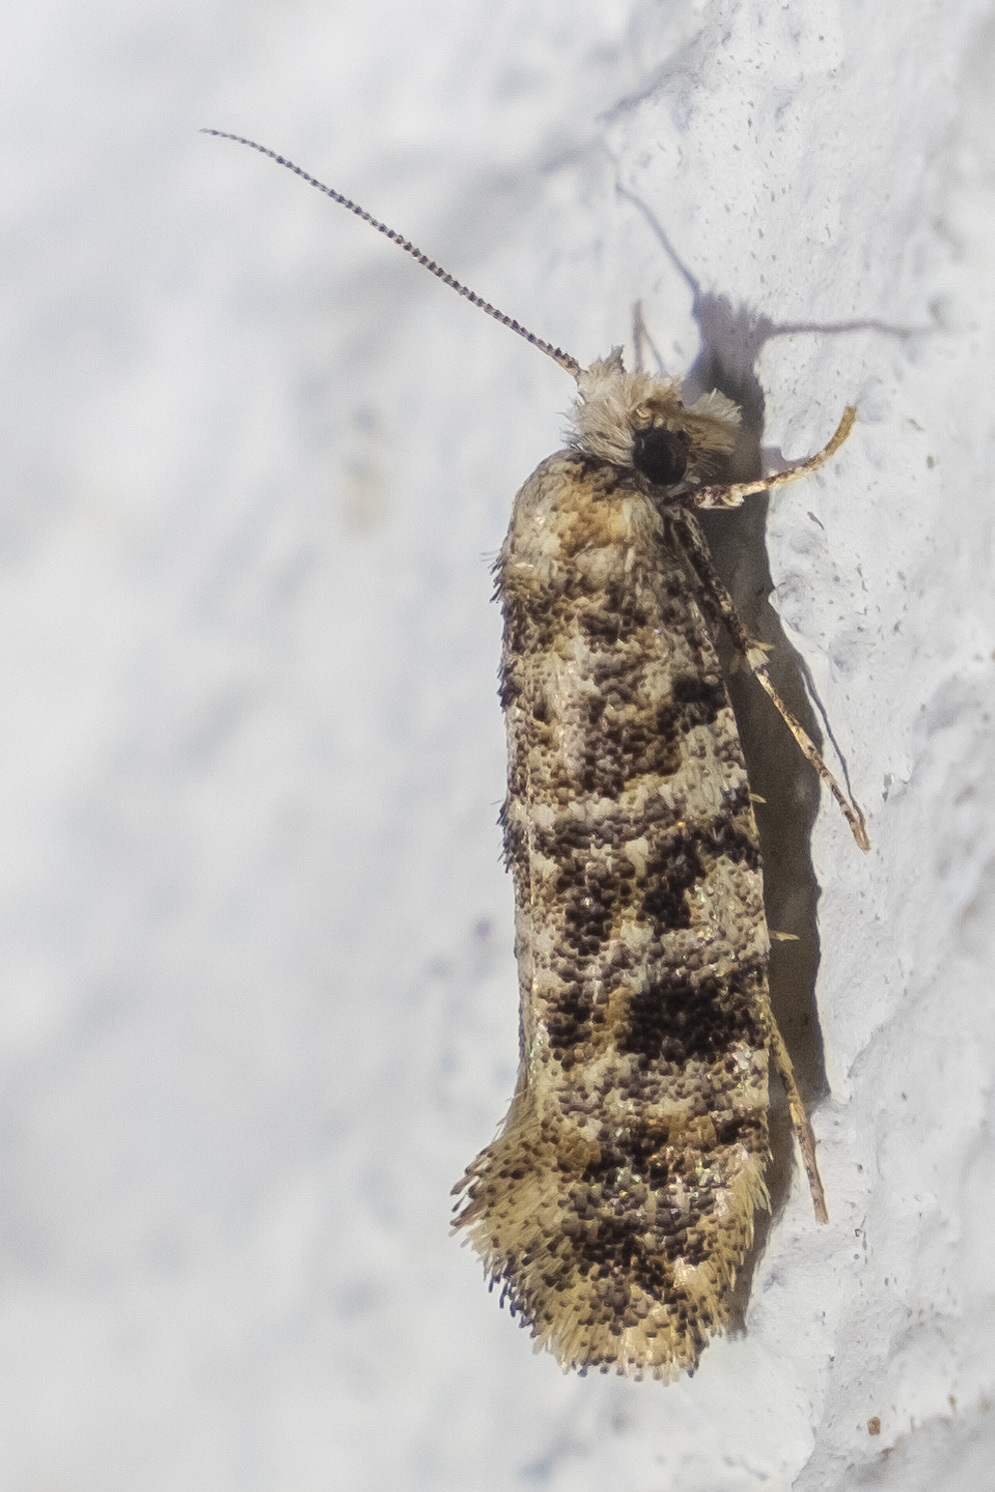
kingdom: Animalia
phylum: Arthropoda
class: Insecta
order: Lepidoptera
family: Tineidae
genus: Xylesthia
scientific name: Xylesthia pruniramiella
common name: Clemens' bark moth
